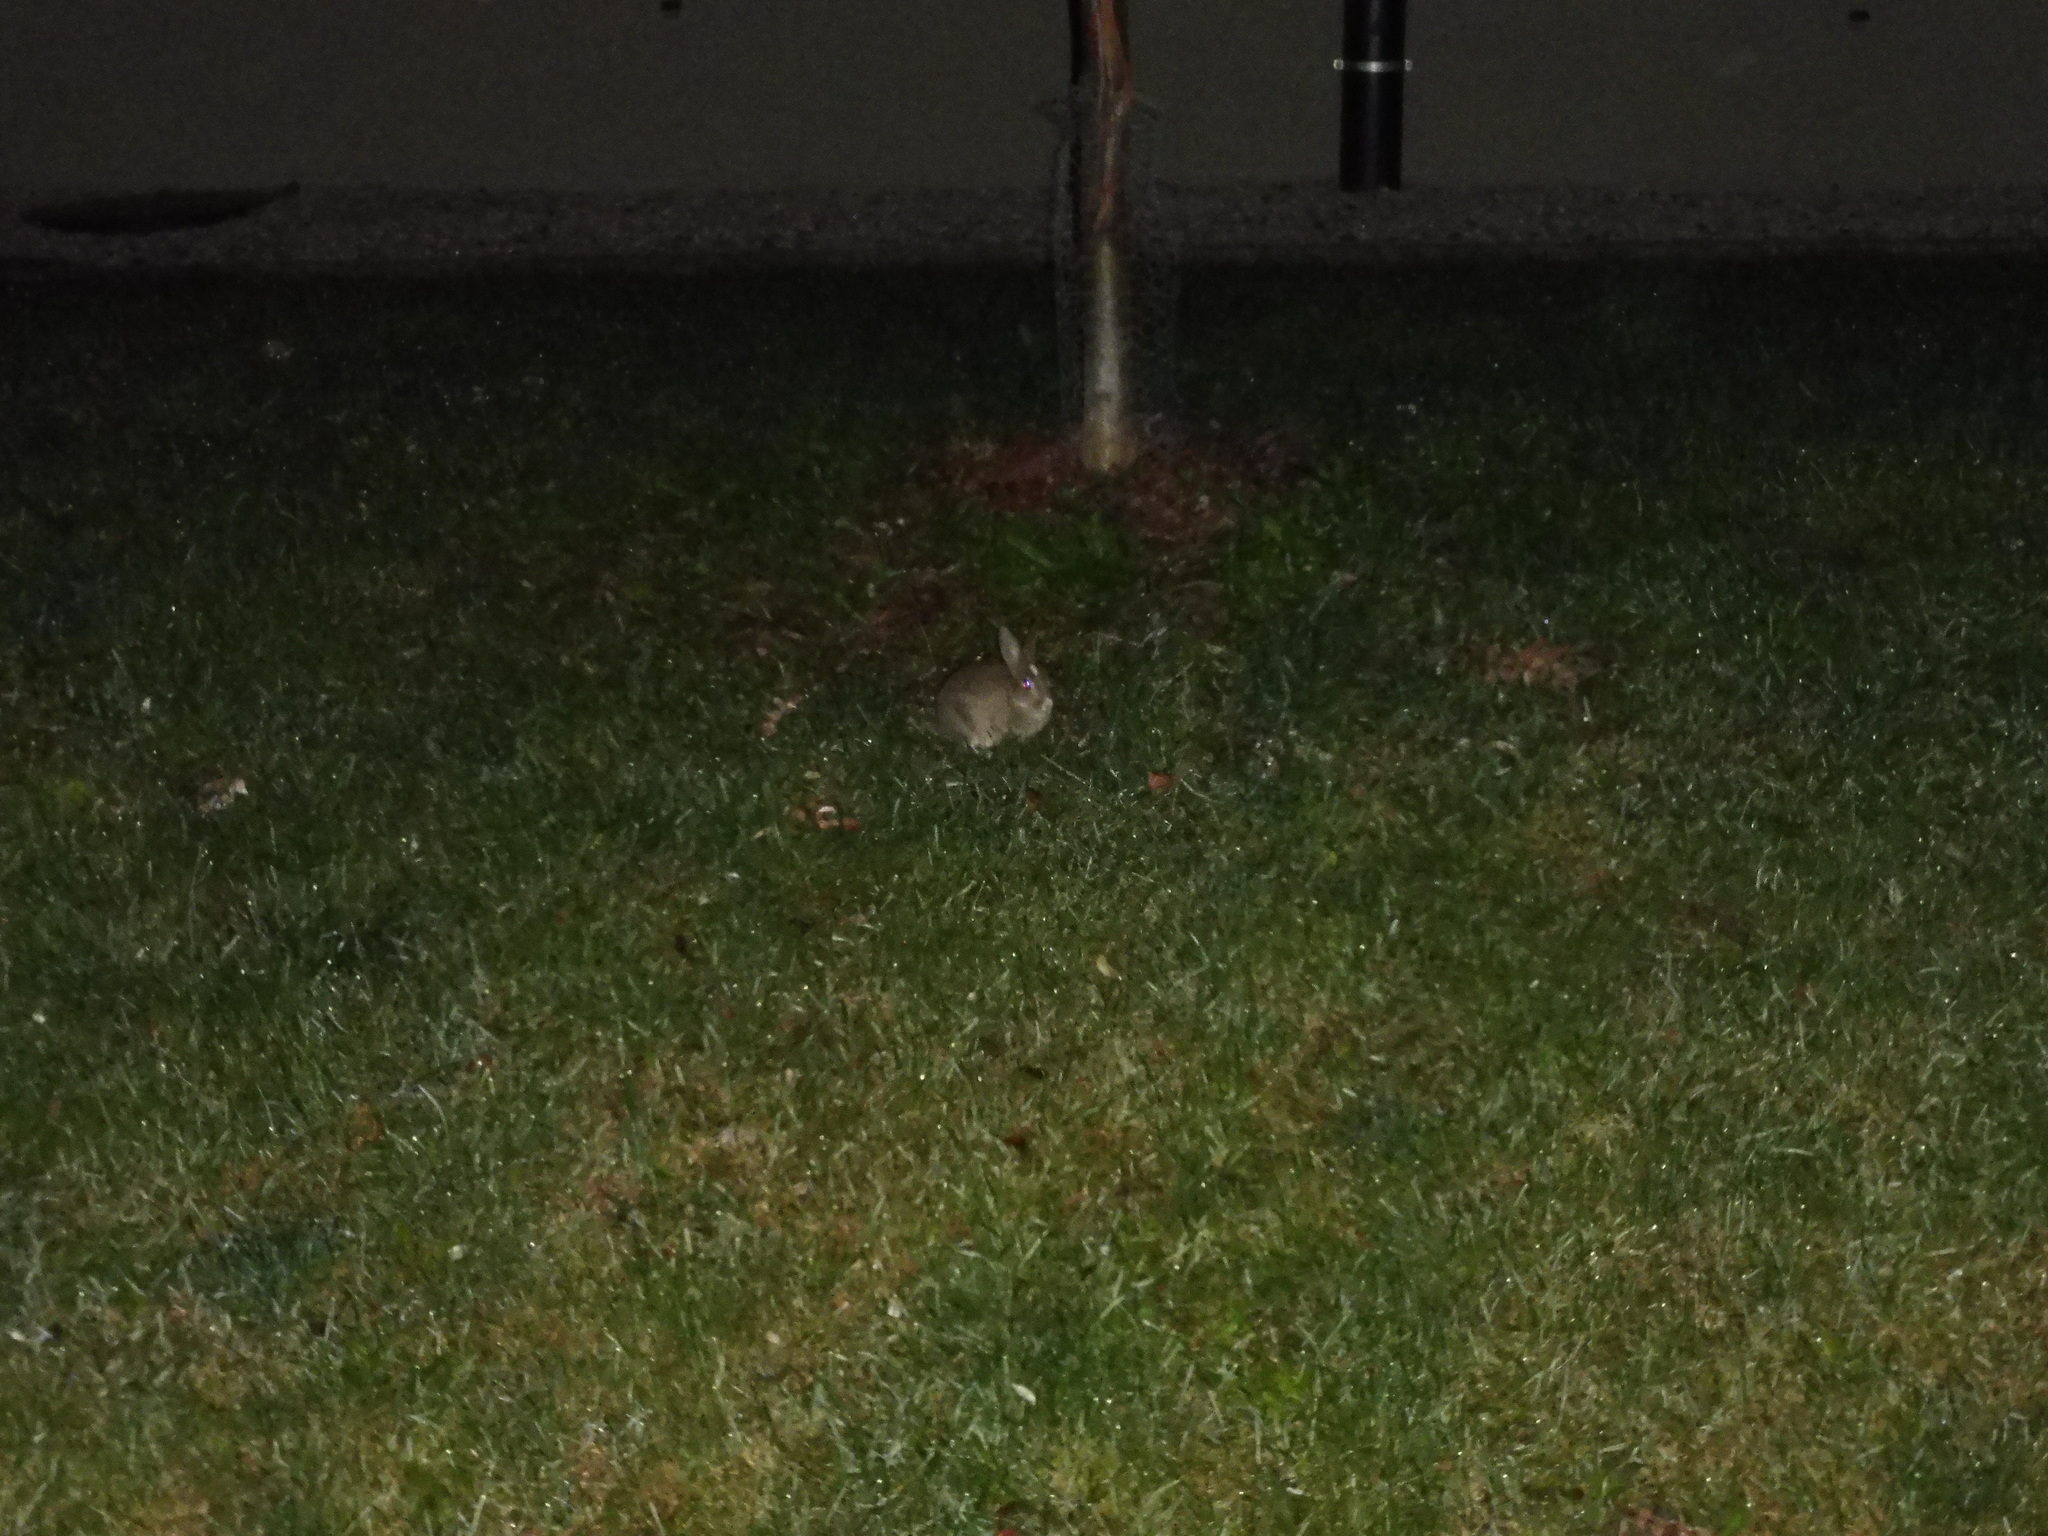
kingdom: Animalia
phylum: Chordata
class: Mammalia
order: Lagomorpha
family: Leporidae
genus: Oryctolagus
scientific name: Oryctolagus cuniculus
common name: European rabbit
